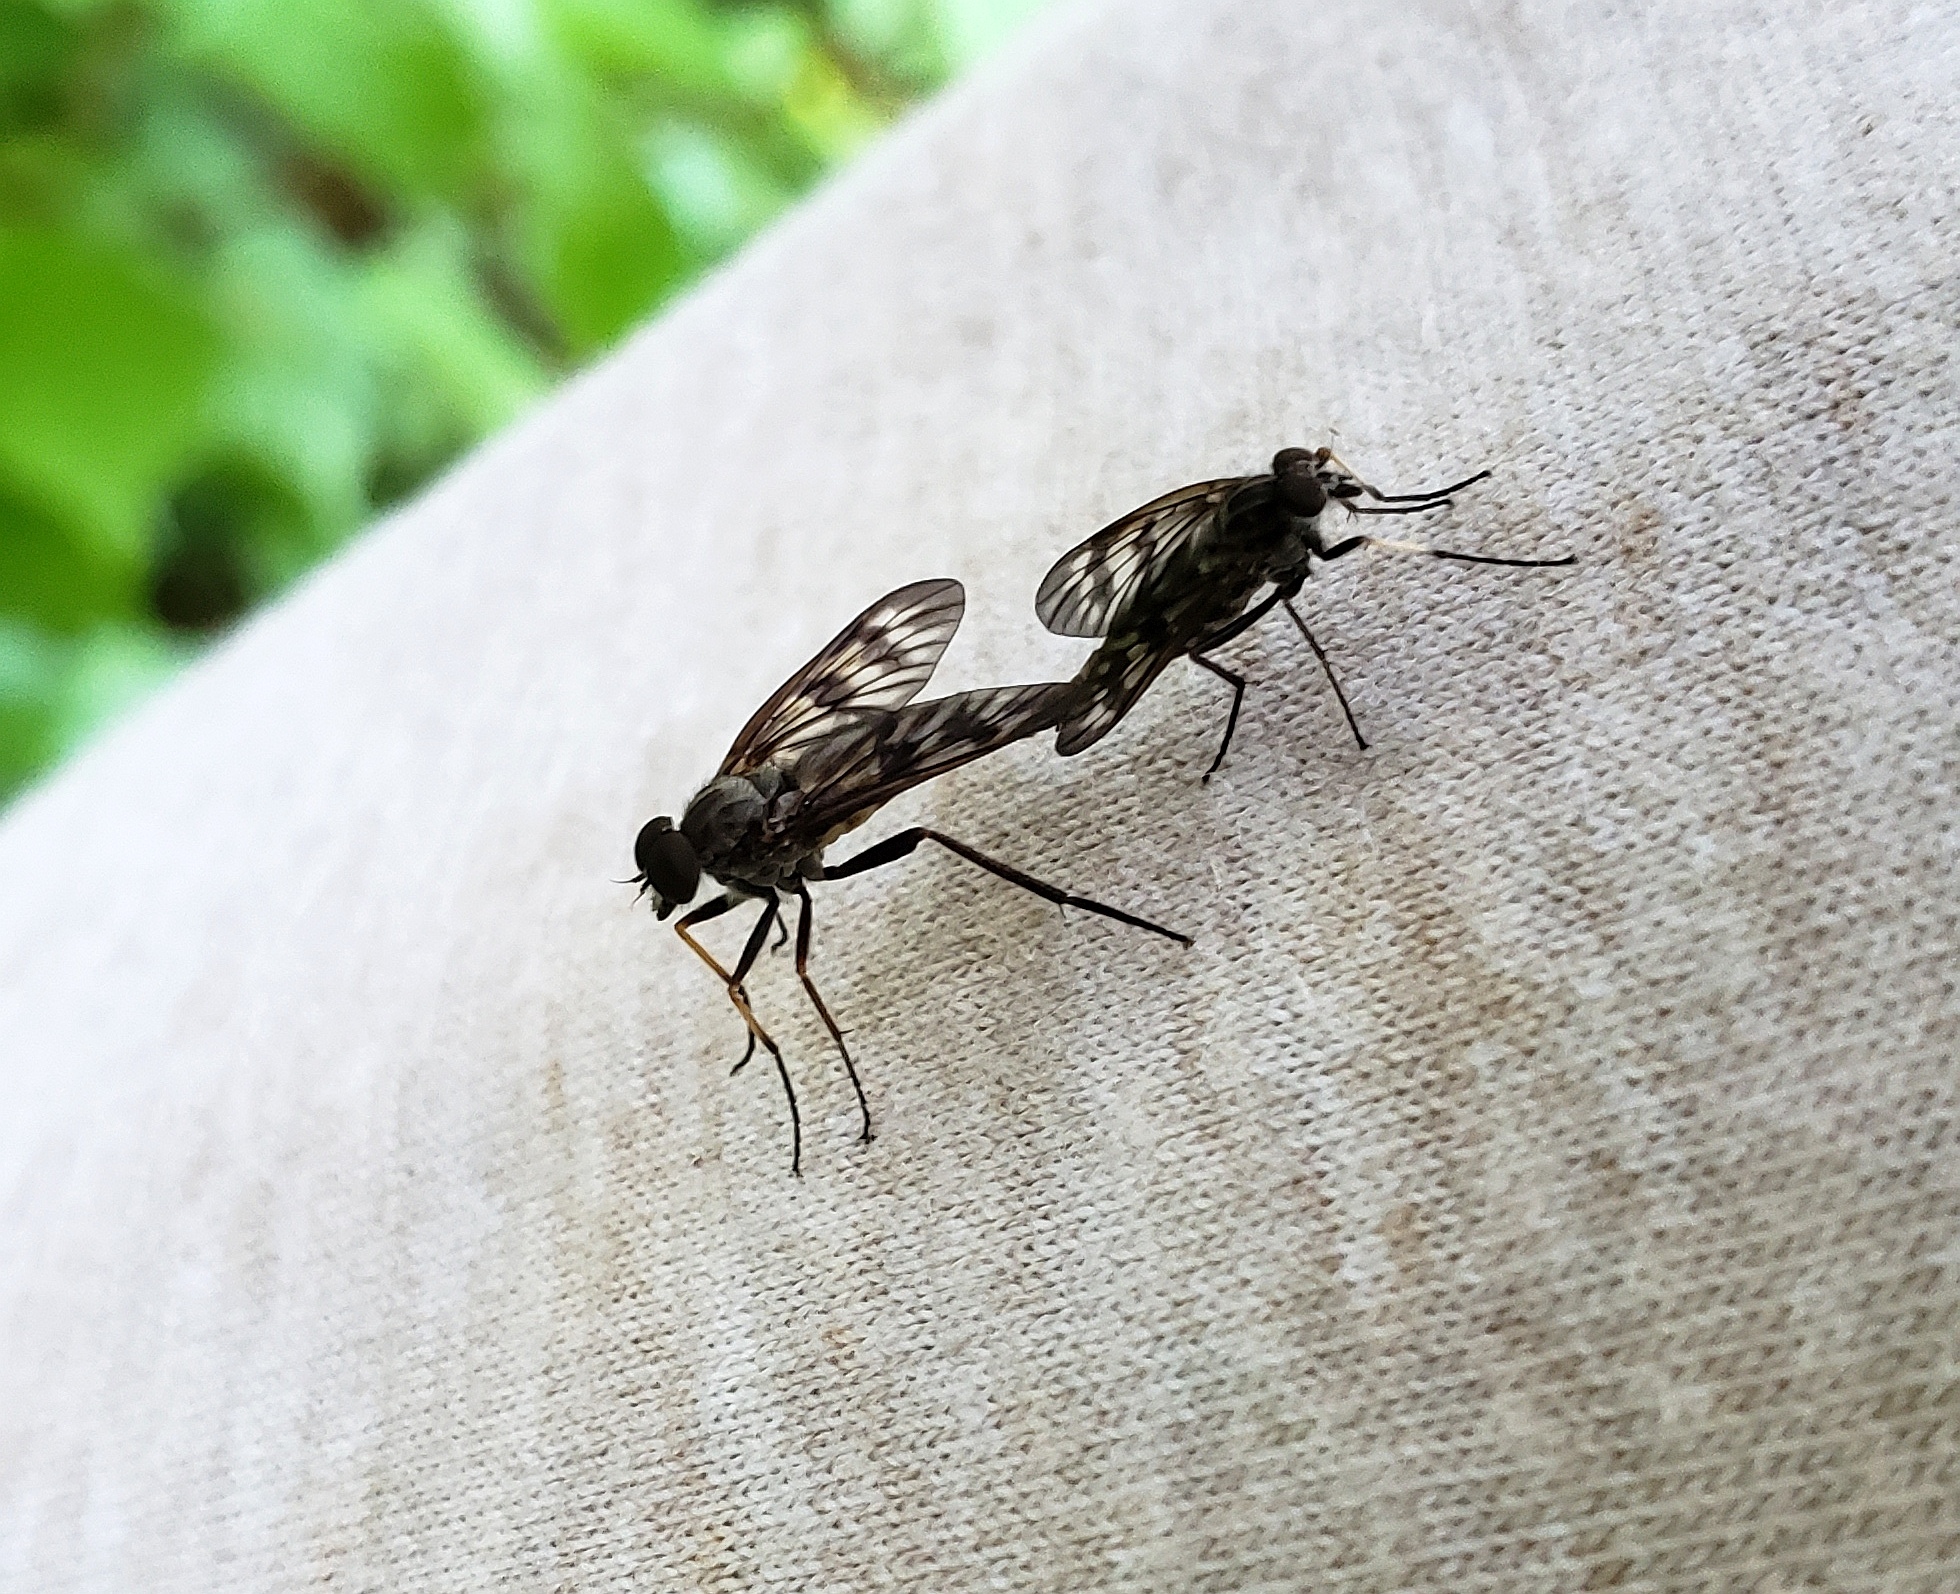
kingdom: Animalia
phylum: Arthropoda
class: Insecta
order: Diptera
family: Rhagionidae
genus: Rhagio
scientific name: Rhagio mystaceus
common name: Common snipe fly
